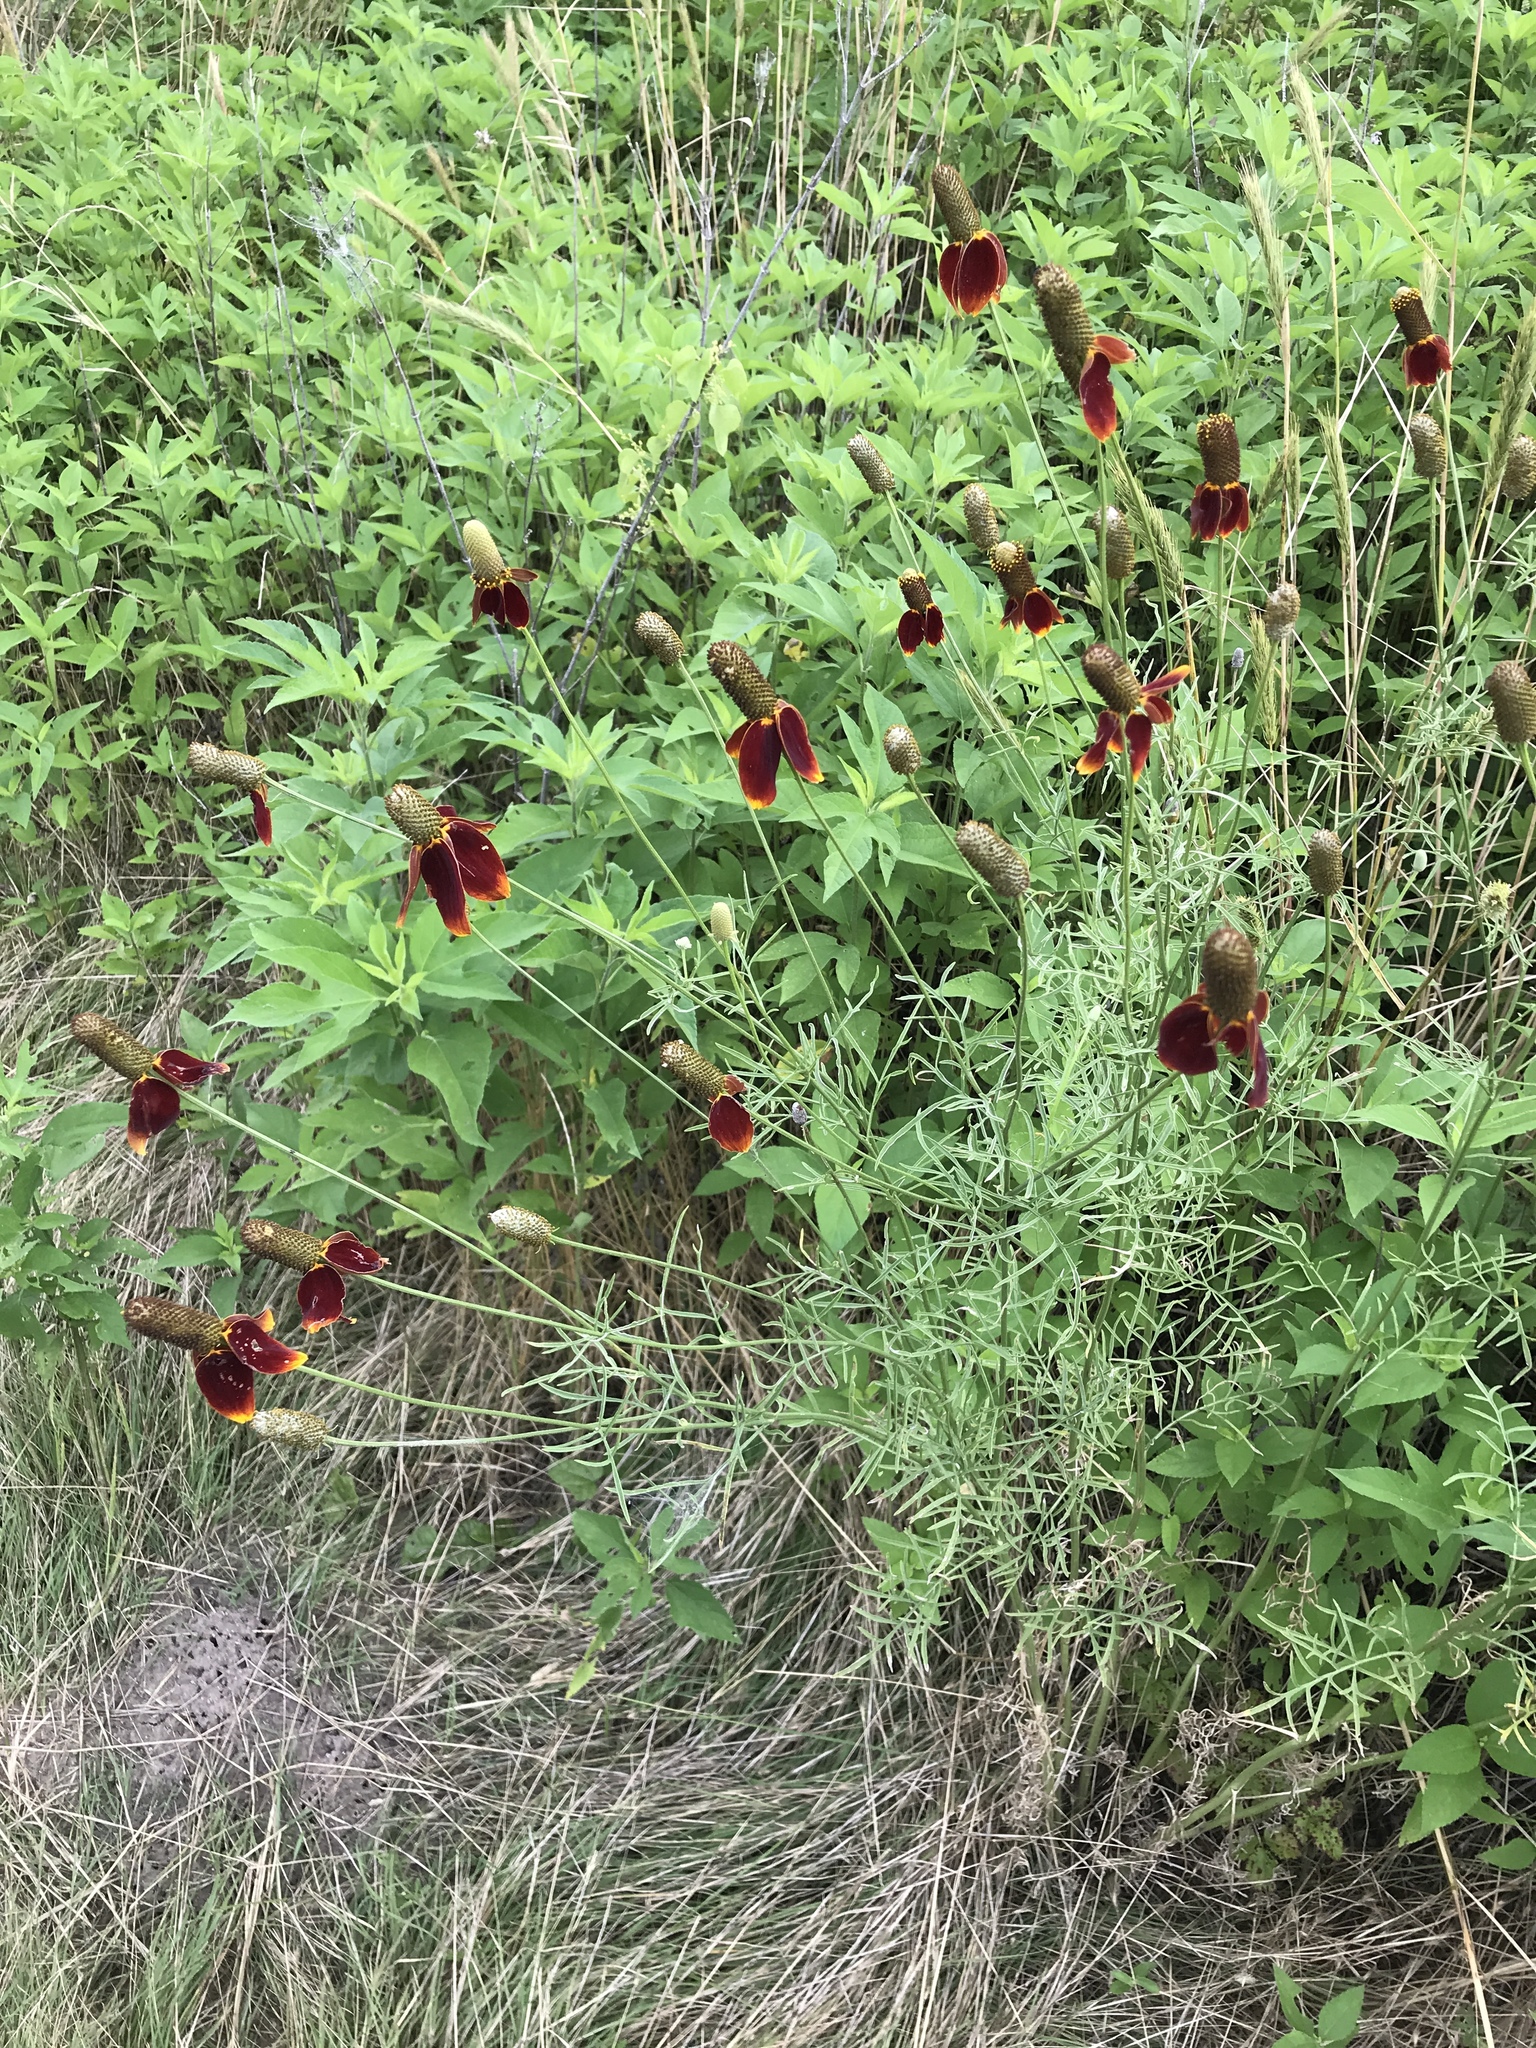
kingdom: Plantae
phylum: Tracheophyta
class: Magnoliopsida
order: Asterales
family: Asteraceae
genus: Ratibida
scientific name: Ratibida columnifera
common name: Prairie coneflower
